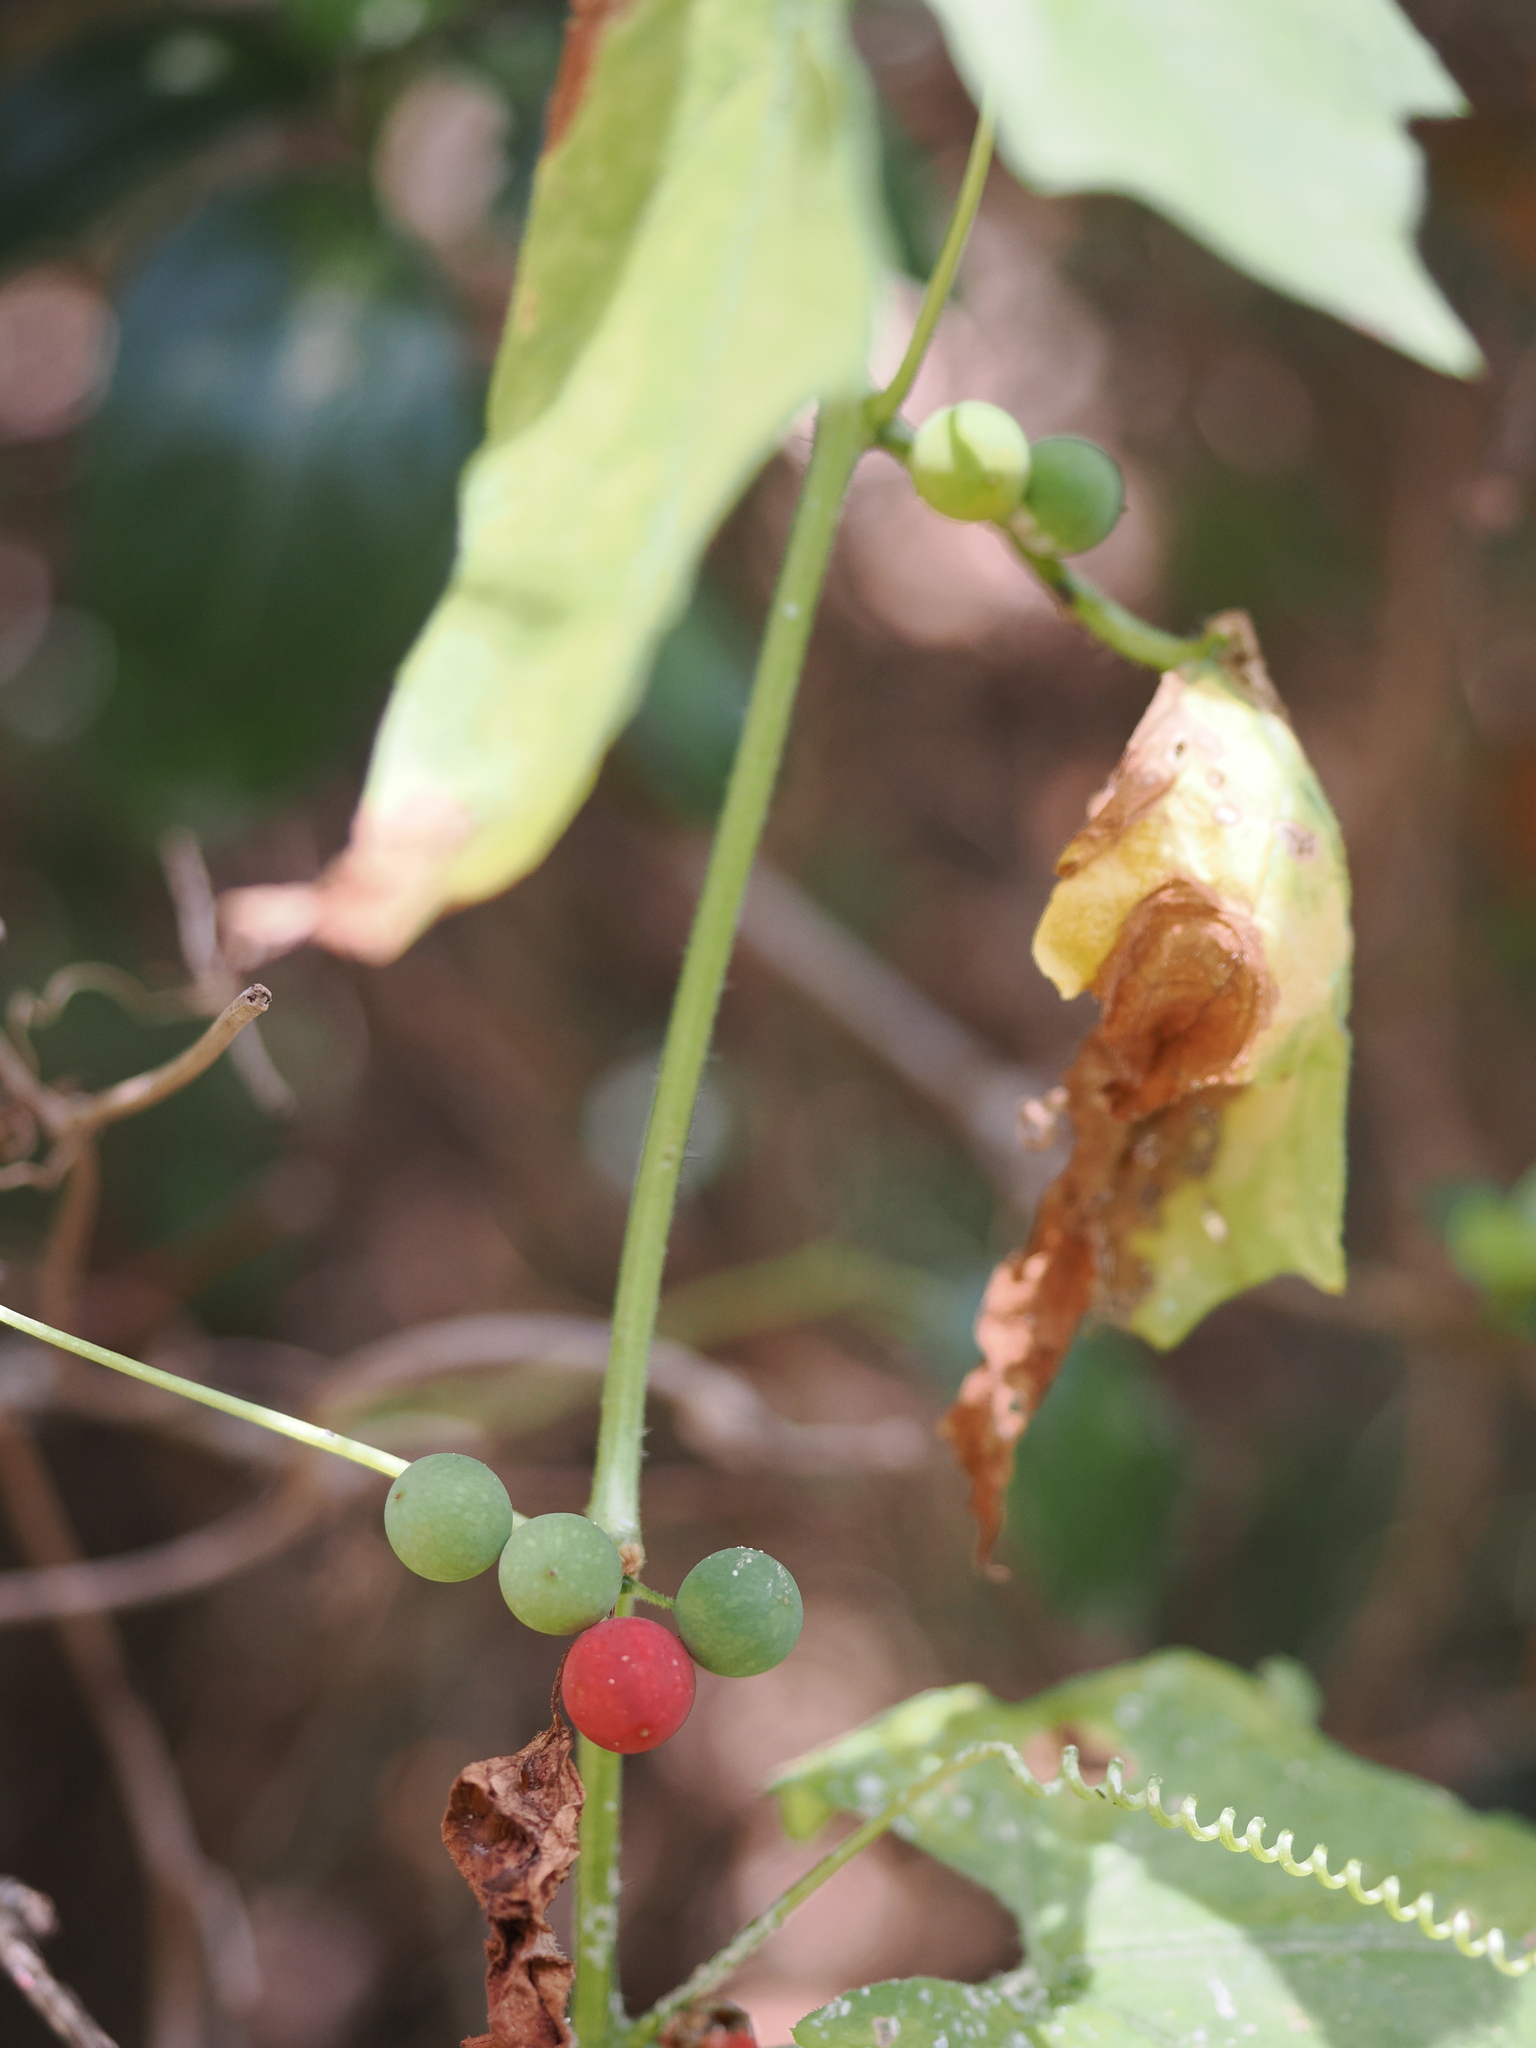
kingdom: Plantae
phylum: Tracheophyta
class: Magnoliopsida
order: Cucurbitales
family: Cucurbitaceae
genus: Bryonia
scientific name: Bryonia cretica
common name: Cretan bryony
